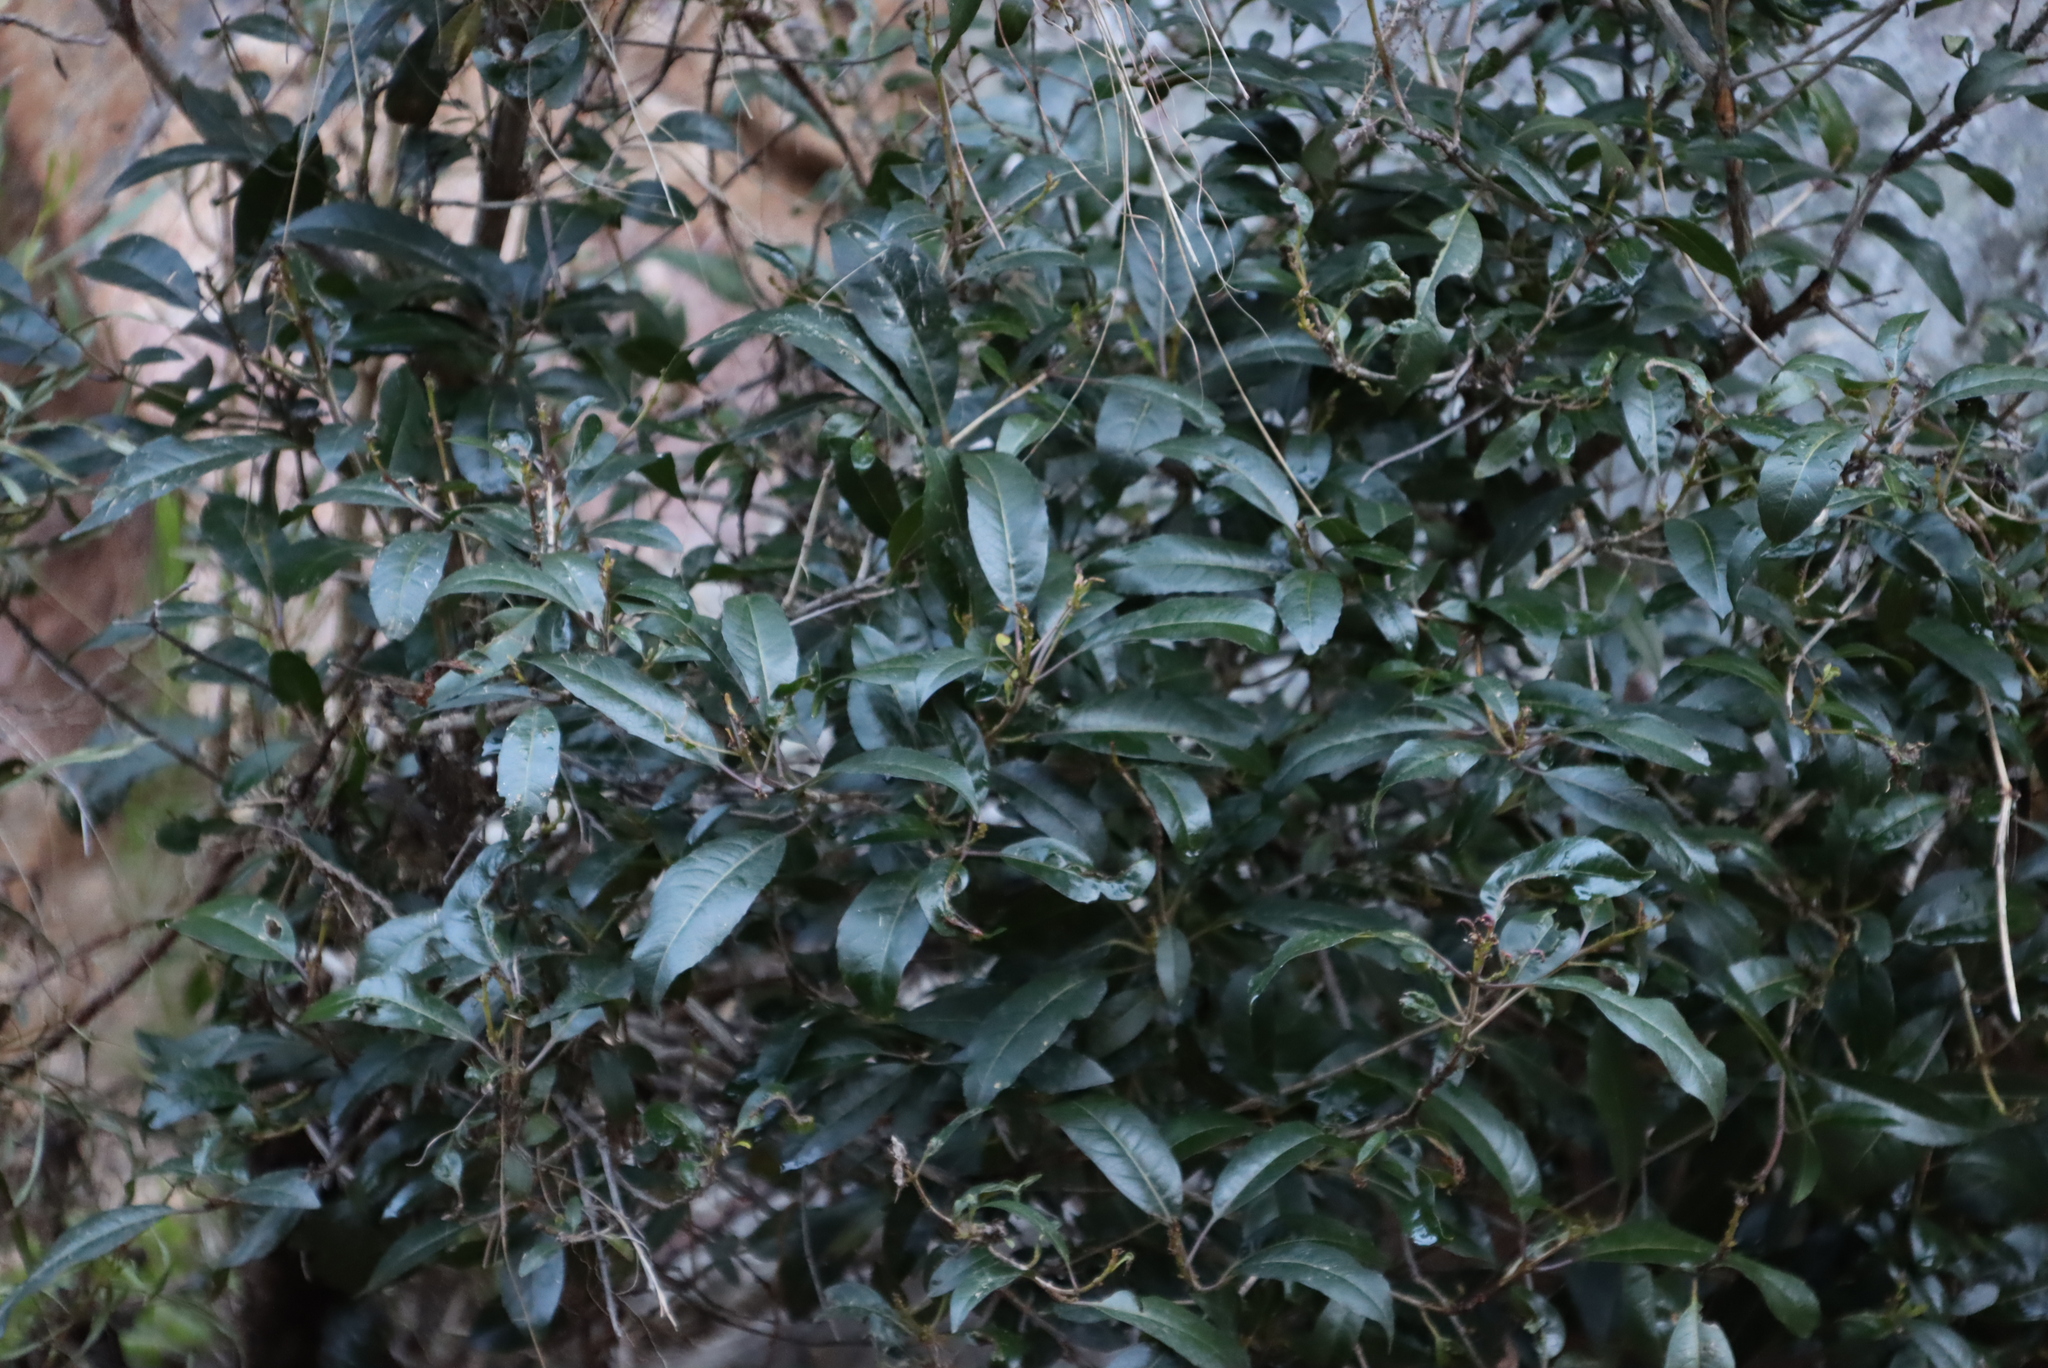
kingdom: Plantae
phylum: Tracheophyta
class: Magnoliopsida
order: Lamiales
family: Stilbaceae
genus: Nuxia
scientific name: Nuxia floribunda
